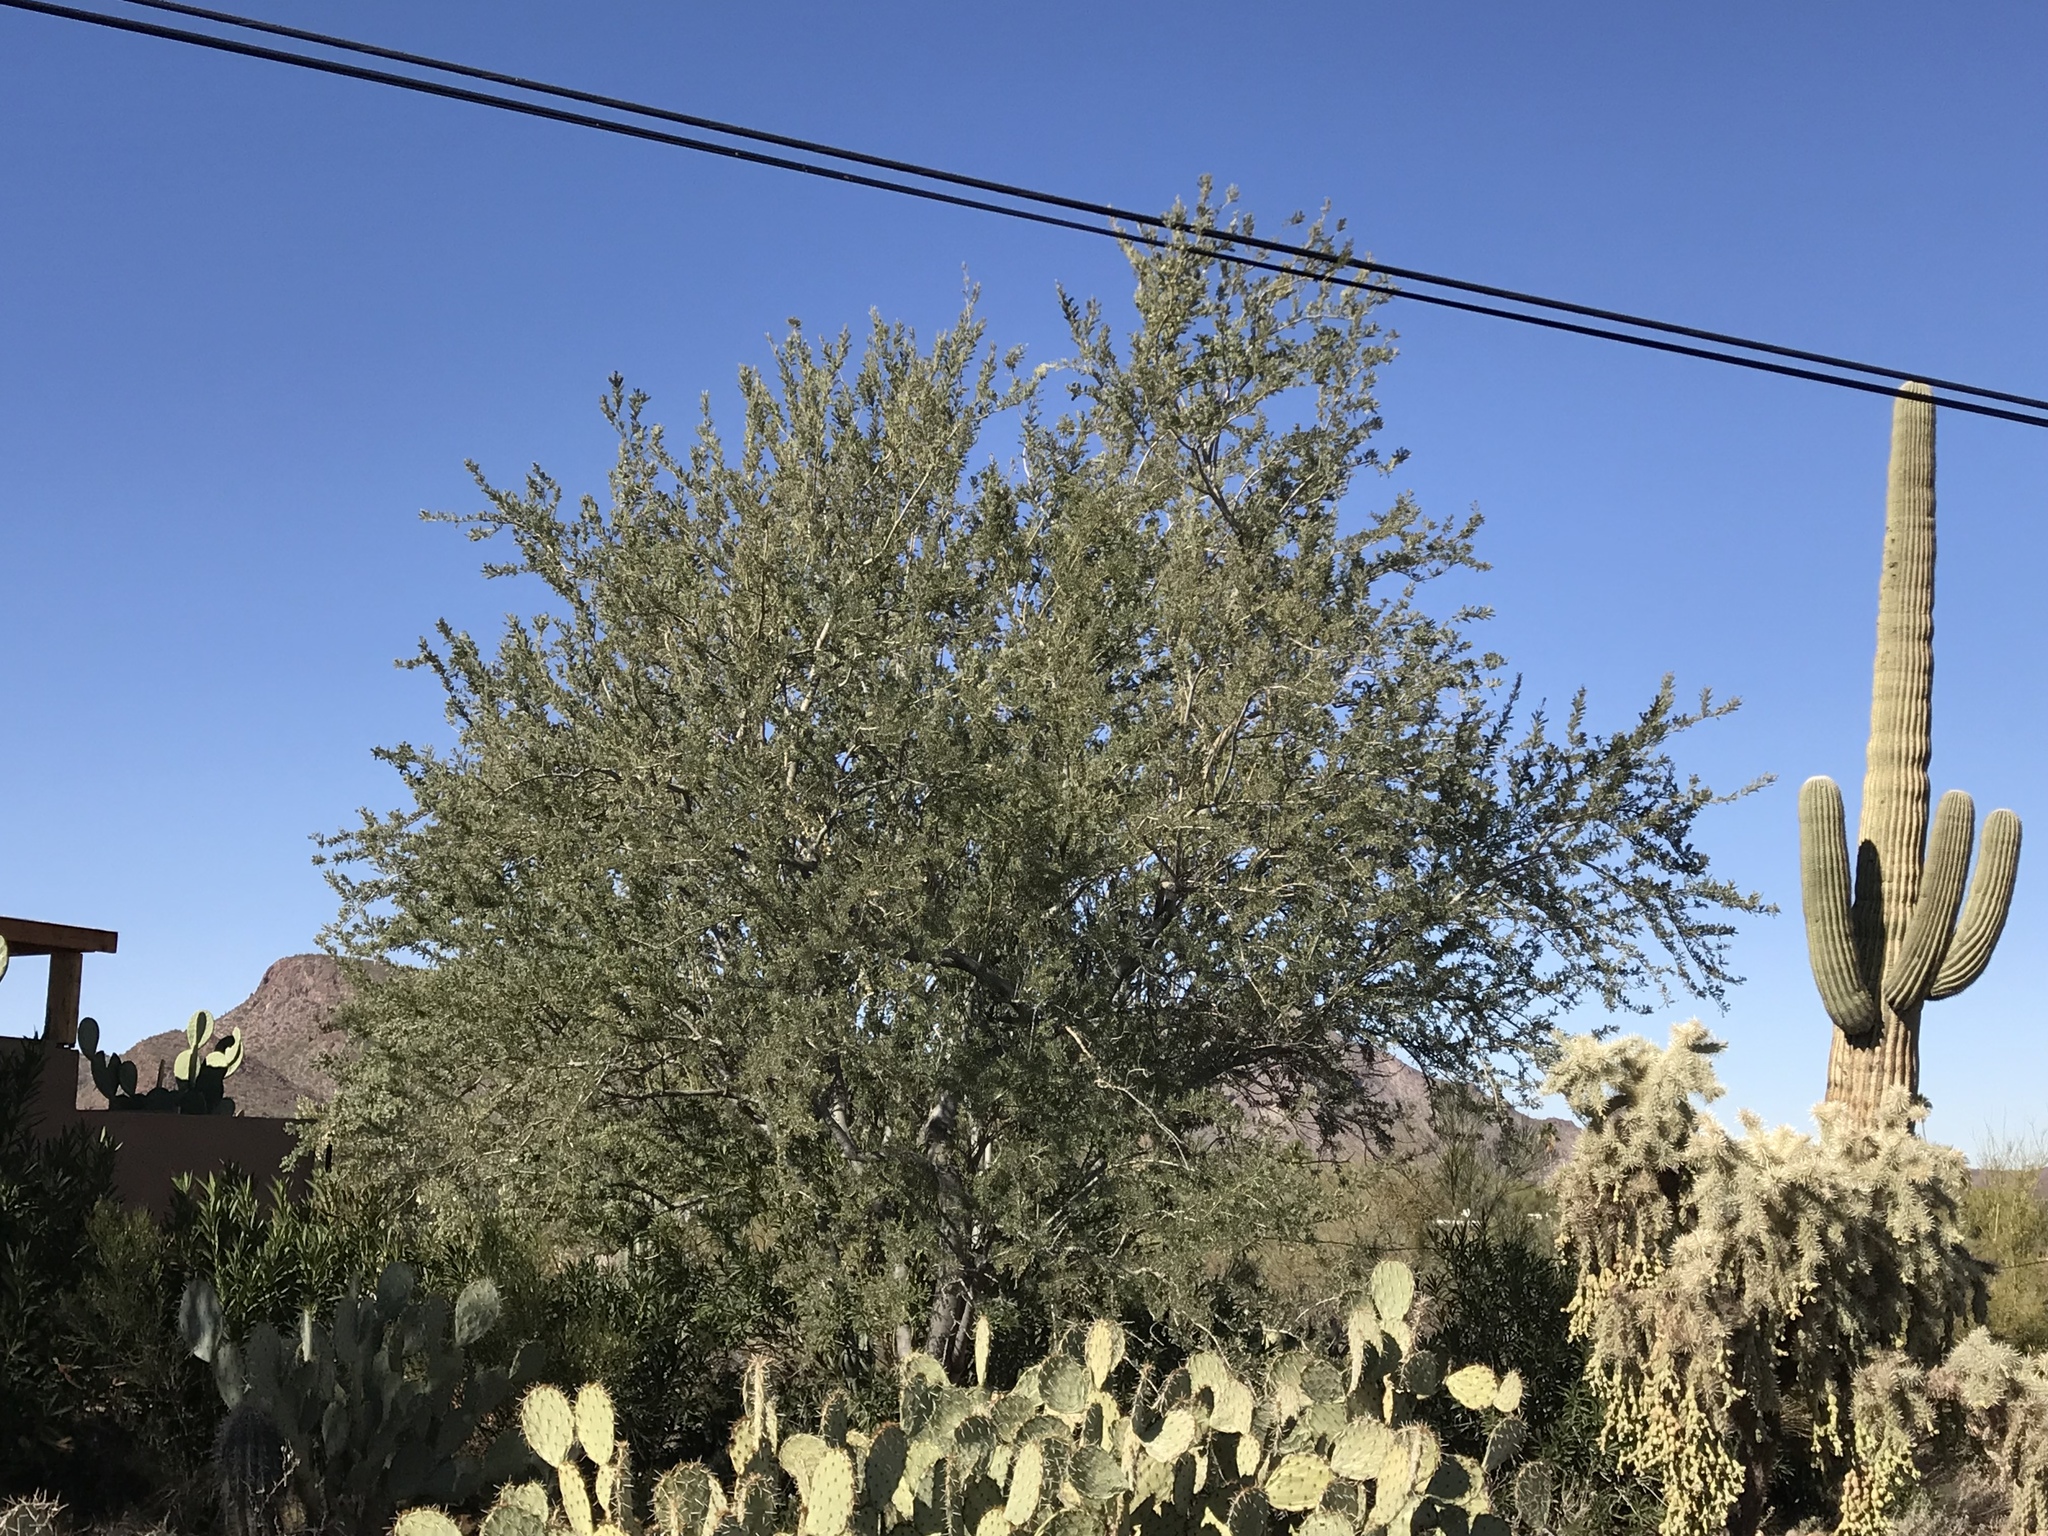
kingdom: Plantae
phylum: Tracheophyta
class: Magnoliopsida
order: Fabales
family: Fabaceae
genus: Olneya
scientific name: Olneya tesota
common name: Desert ironwood
